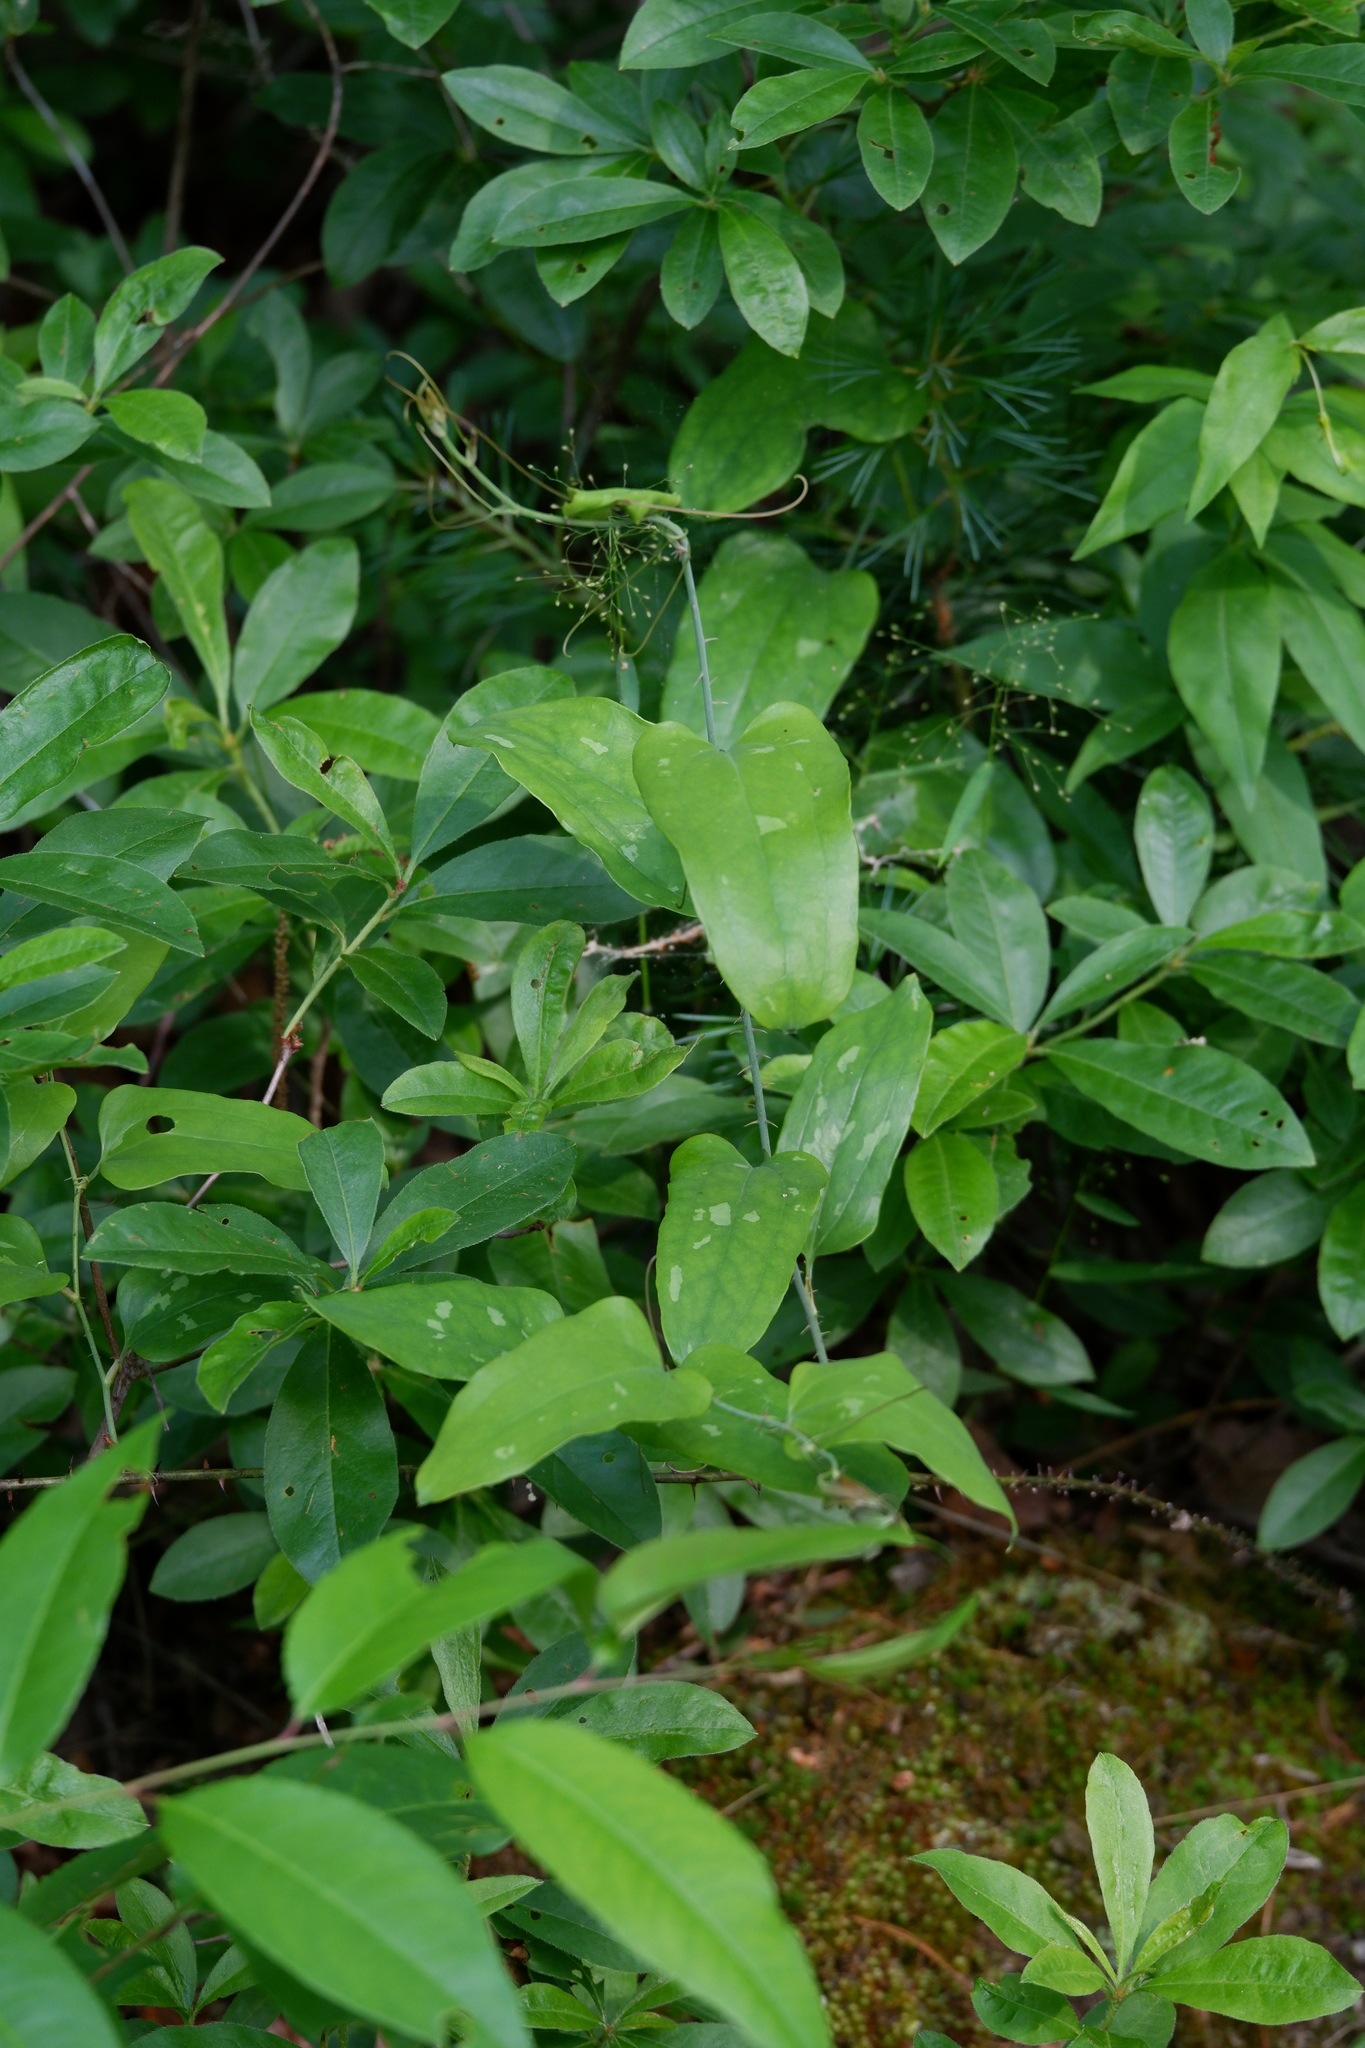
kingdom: Plantae
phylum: Tracheophyta
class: Liliopsida
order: Liliales
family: Smilacaceae
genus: Smilax
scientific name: Smilax glauca
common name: Cat greenbrier
